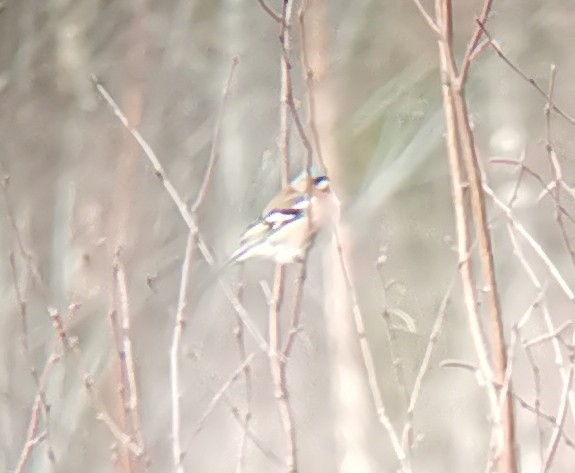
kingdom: Animalia
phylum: Chordata
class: Aves
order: Passeriformes
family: Fringillidae
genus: Fringilla
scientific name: Fringilla coelebs
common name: Common chaffinch
